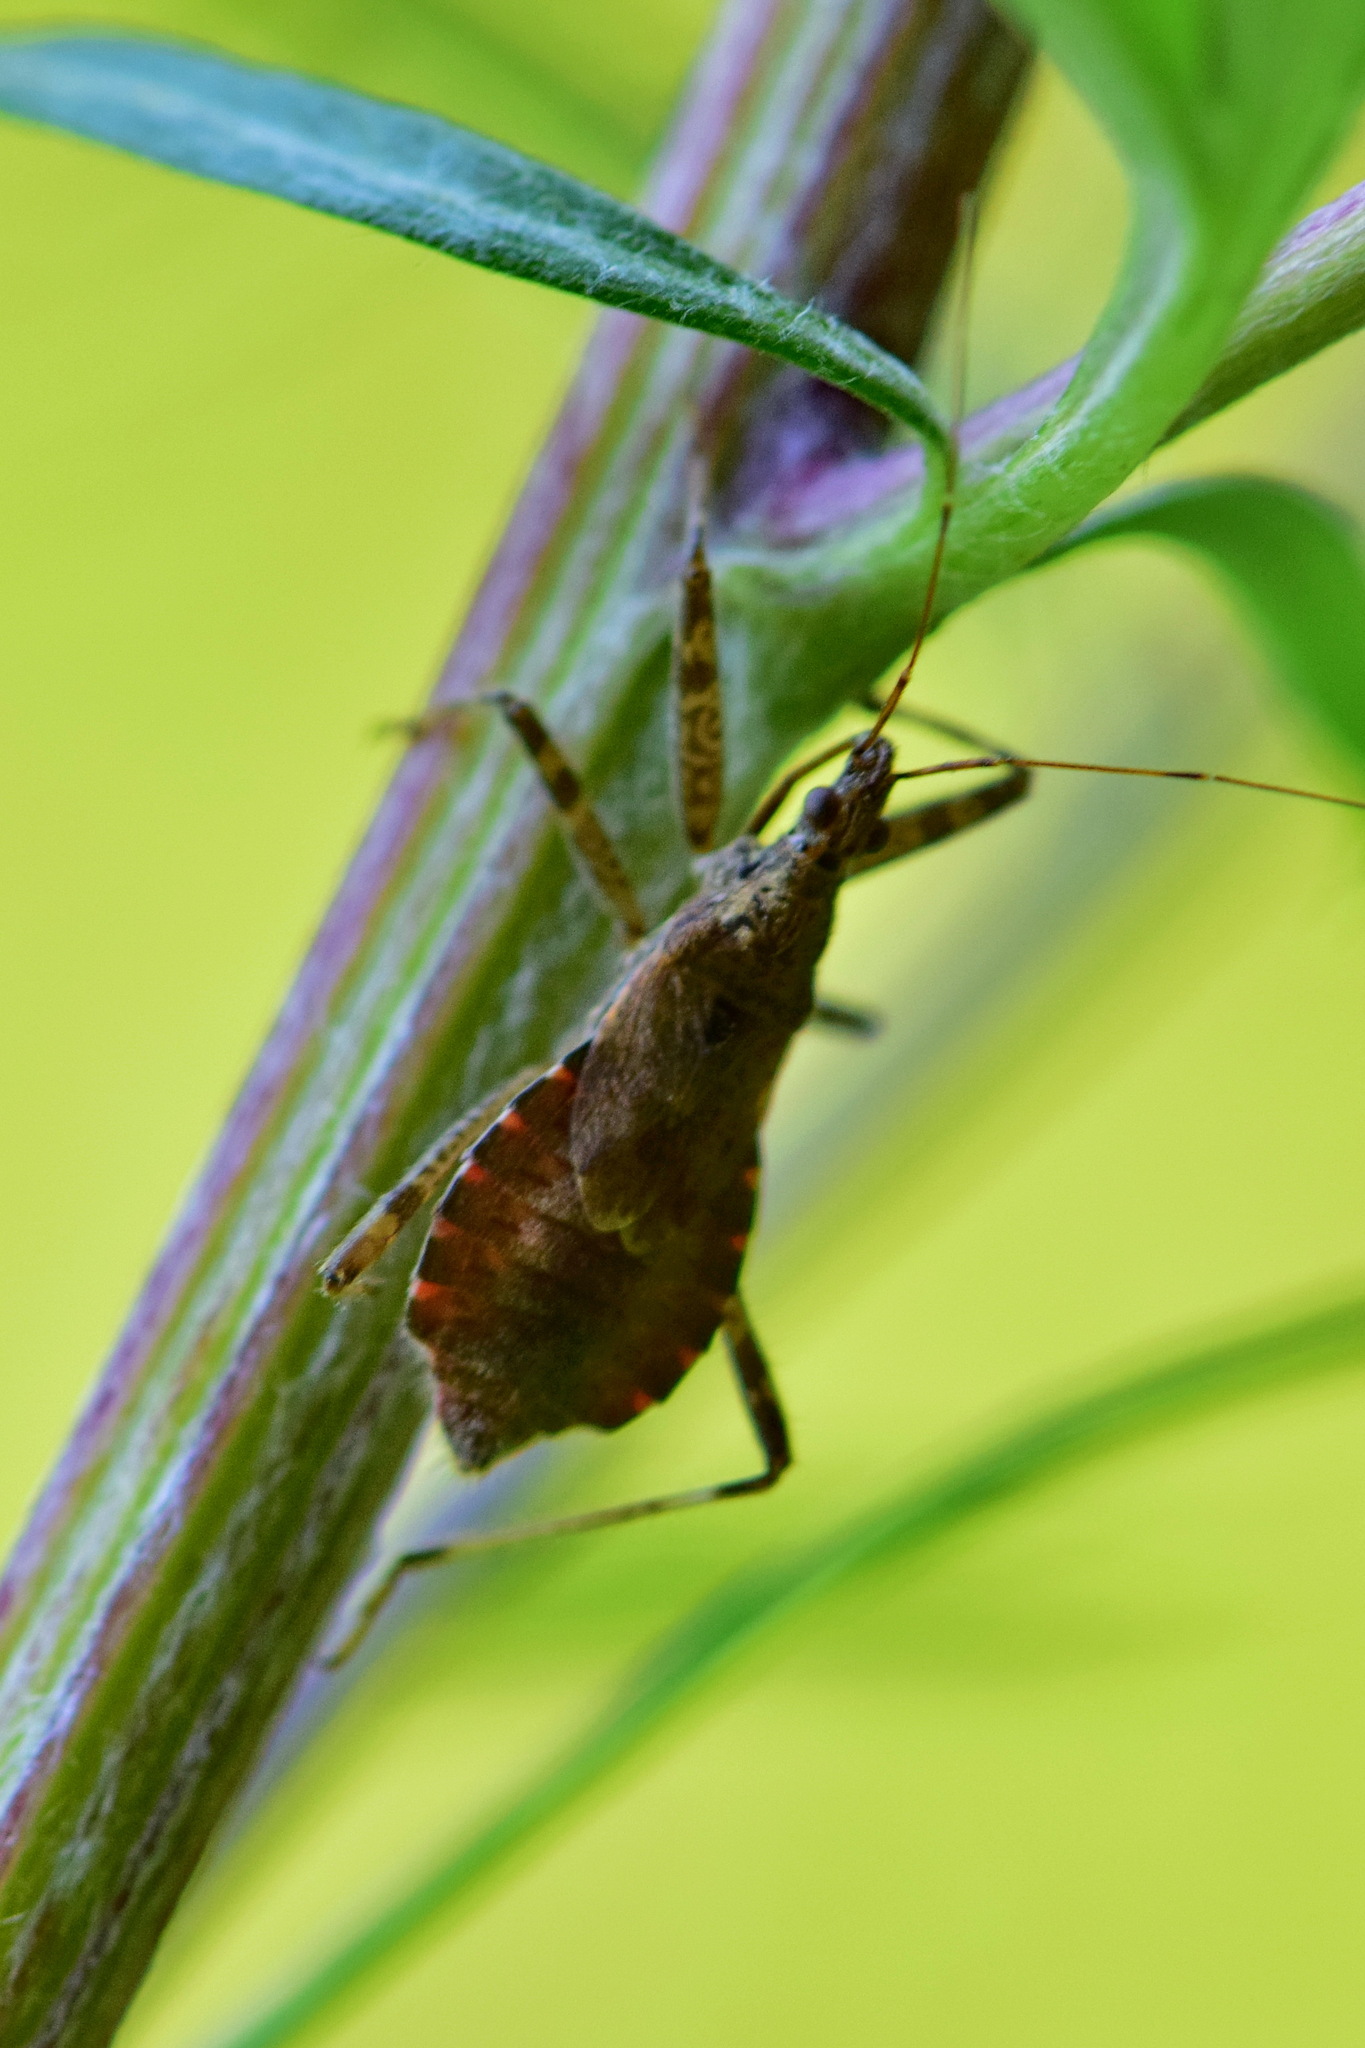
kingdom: Animalia
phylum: Arthropoda
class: Insecta
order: Hemiptera
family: Nabidae
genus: Himacerus
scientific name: Himacerus apterus
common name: Tree damsel bug
